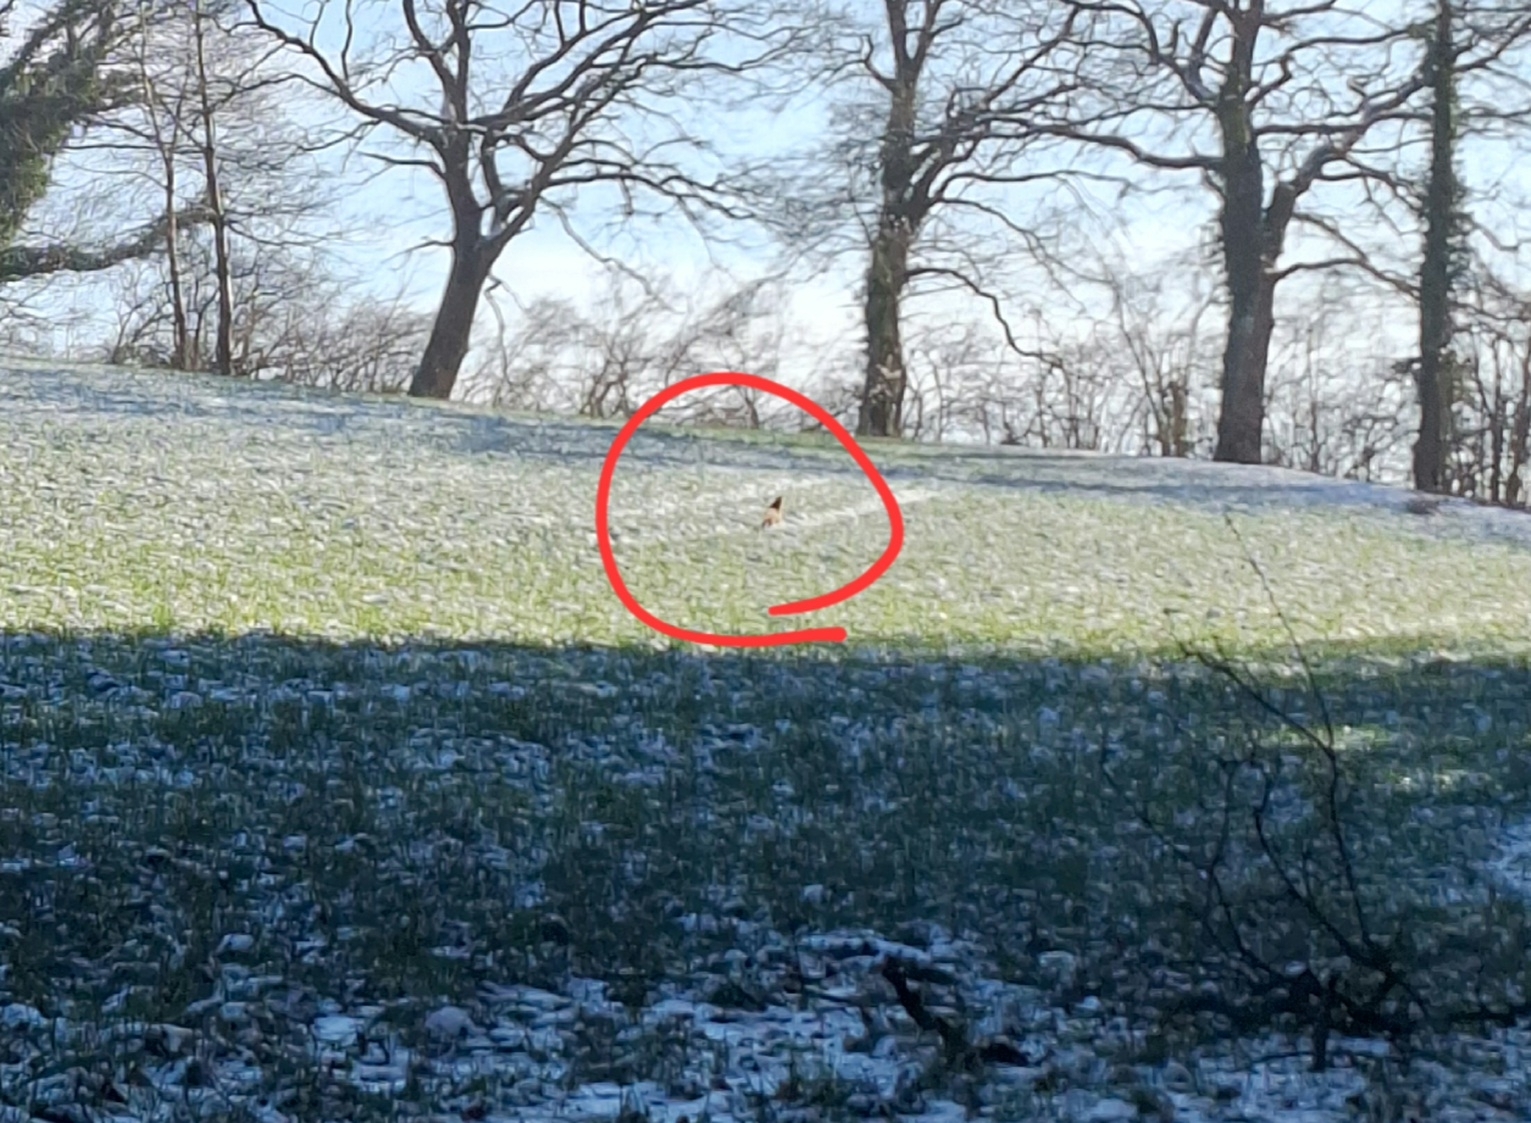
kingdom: Animalia
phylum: Chordata
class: Mammalia
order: Carnivora
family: Canidae
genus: Vulpes
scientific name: Vulpes vulpes
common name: Red fox
